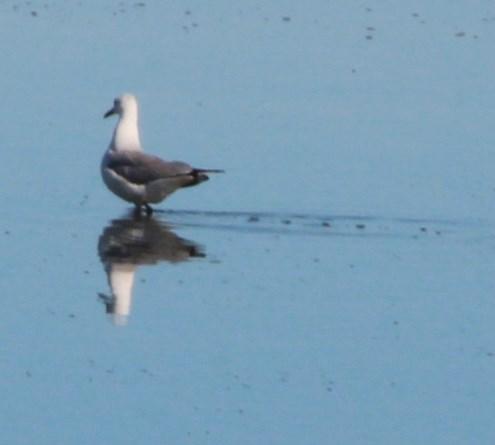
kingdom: Animalia
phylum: Chordata
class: Aves
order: Charadriiformes
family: Laridae
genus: Chroicocephalus
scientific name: Chroicocephalus hartlaubii
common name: Hartlaub's gull
